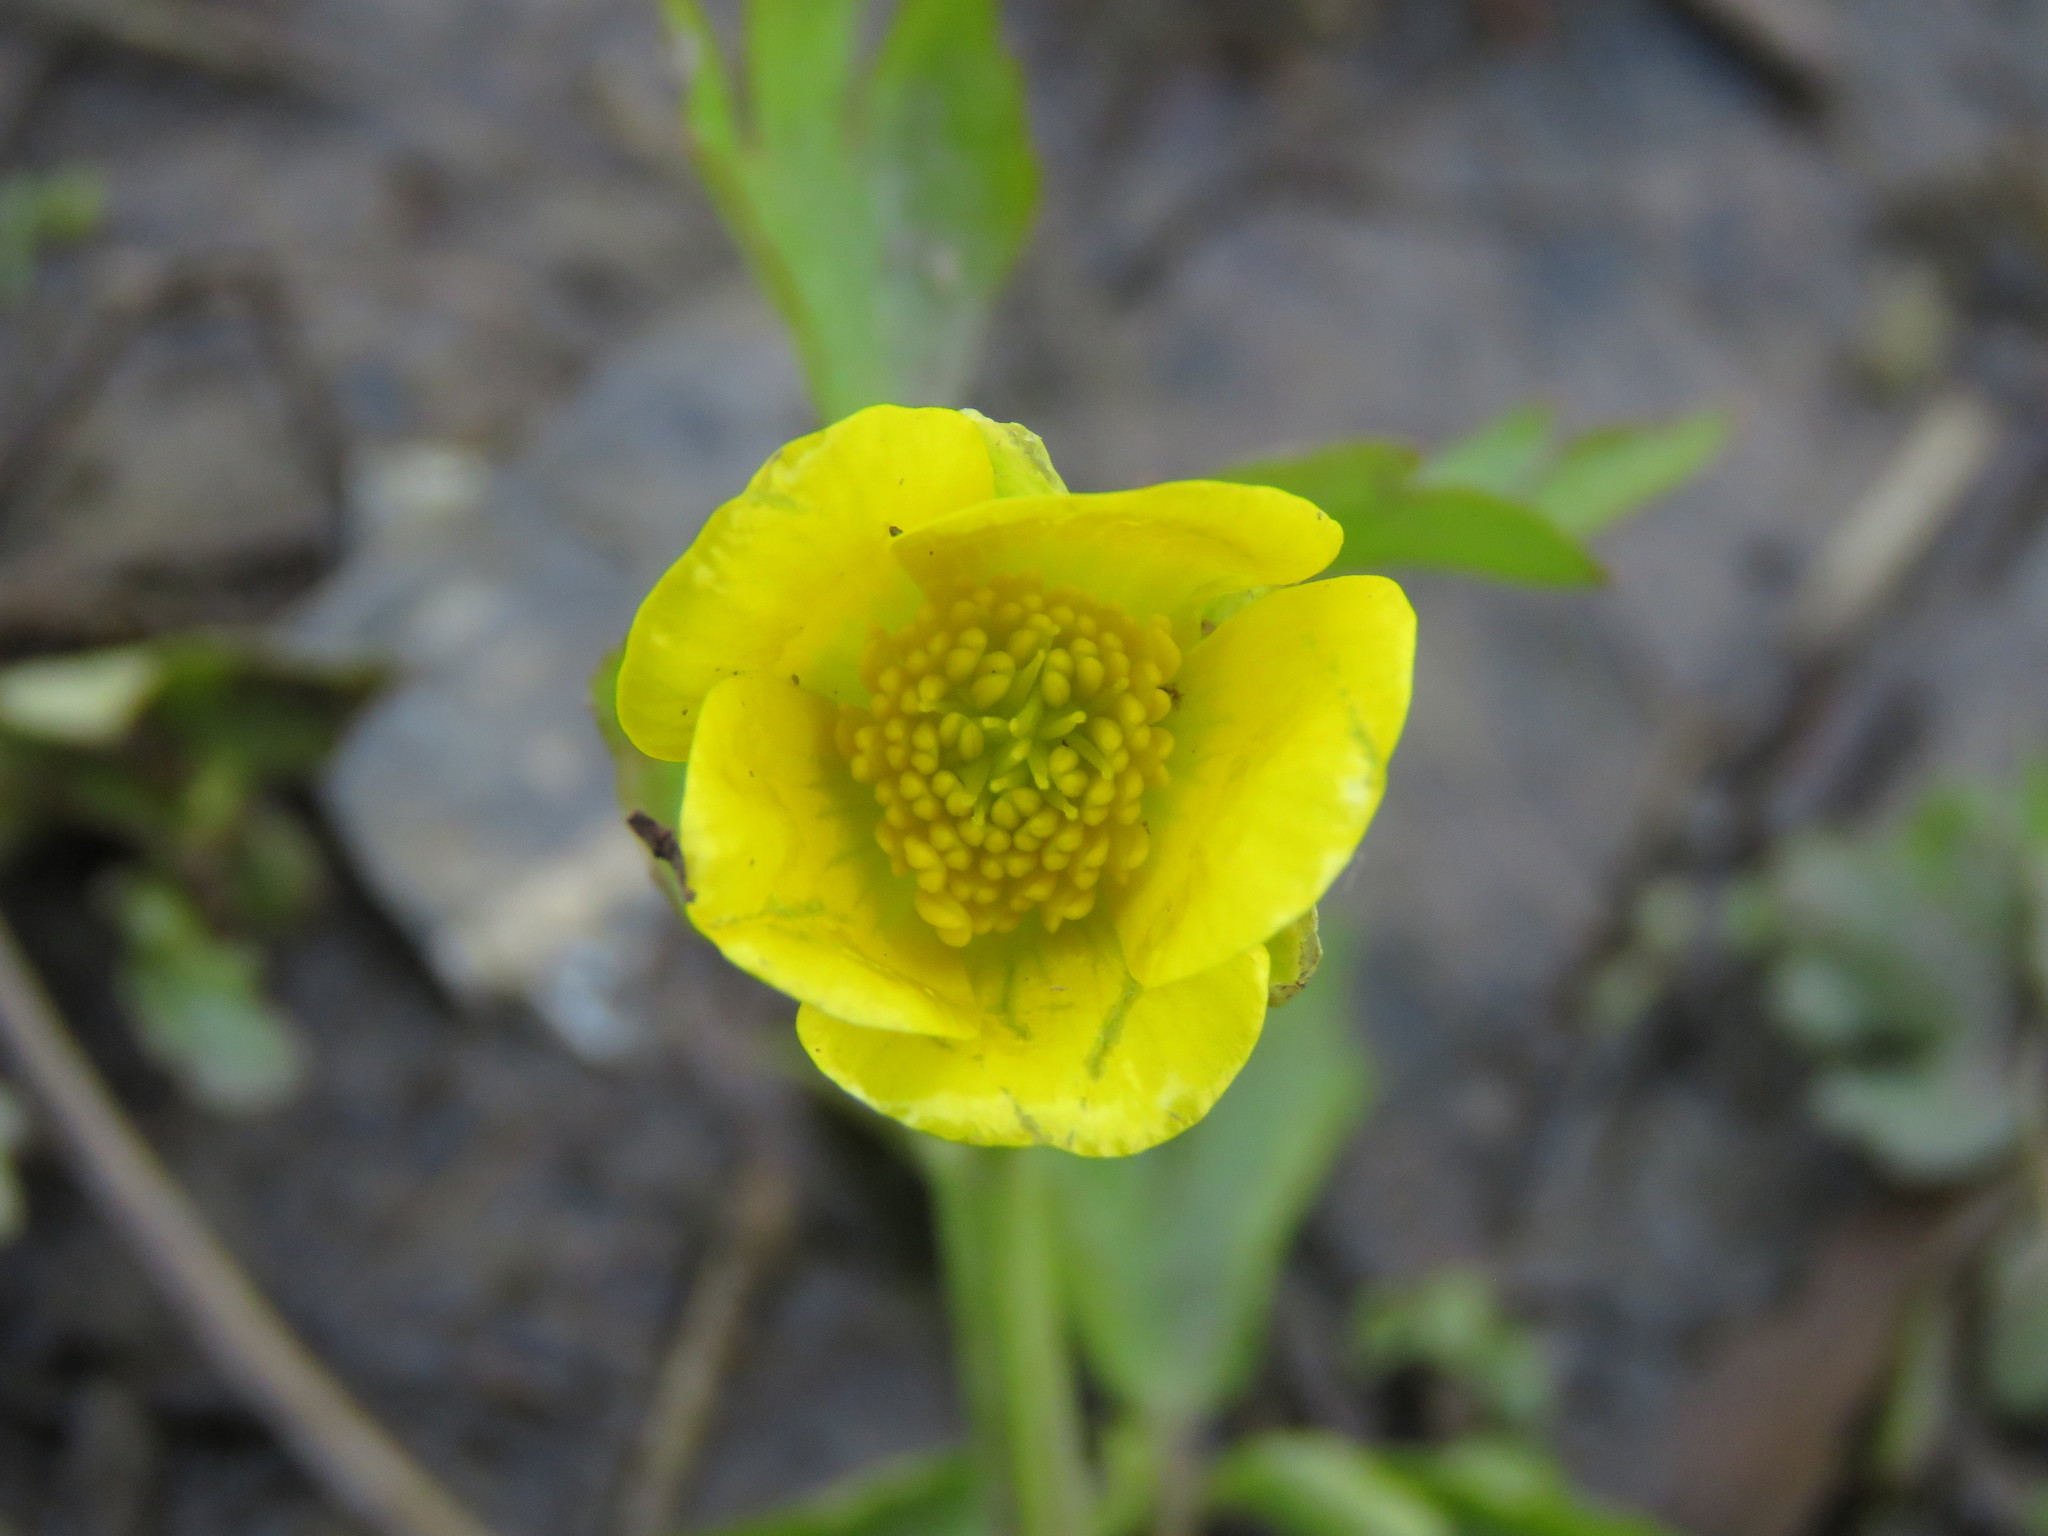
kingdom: Plantae
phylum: Tracheophyta
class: Magnoliopsida
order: Ranunculales
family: Ranunculaceae
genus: Ranunculus
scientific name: Ranunculus hispidus
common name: Bristly buttercup
